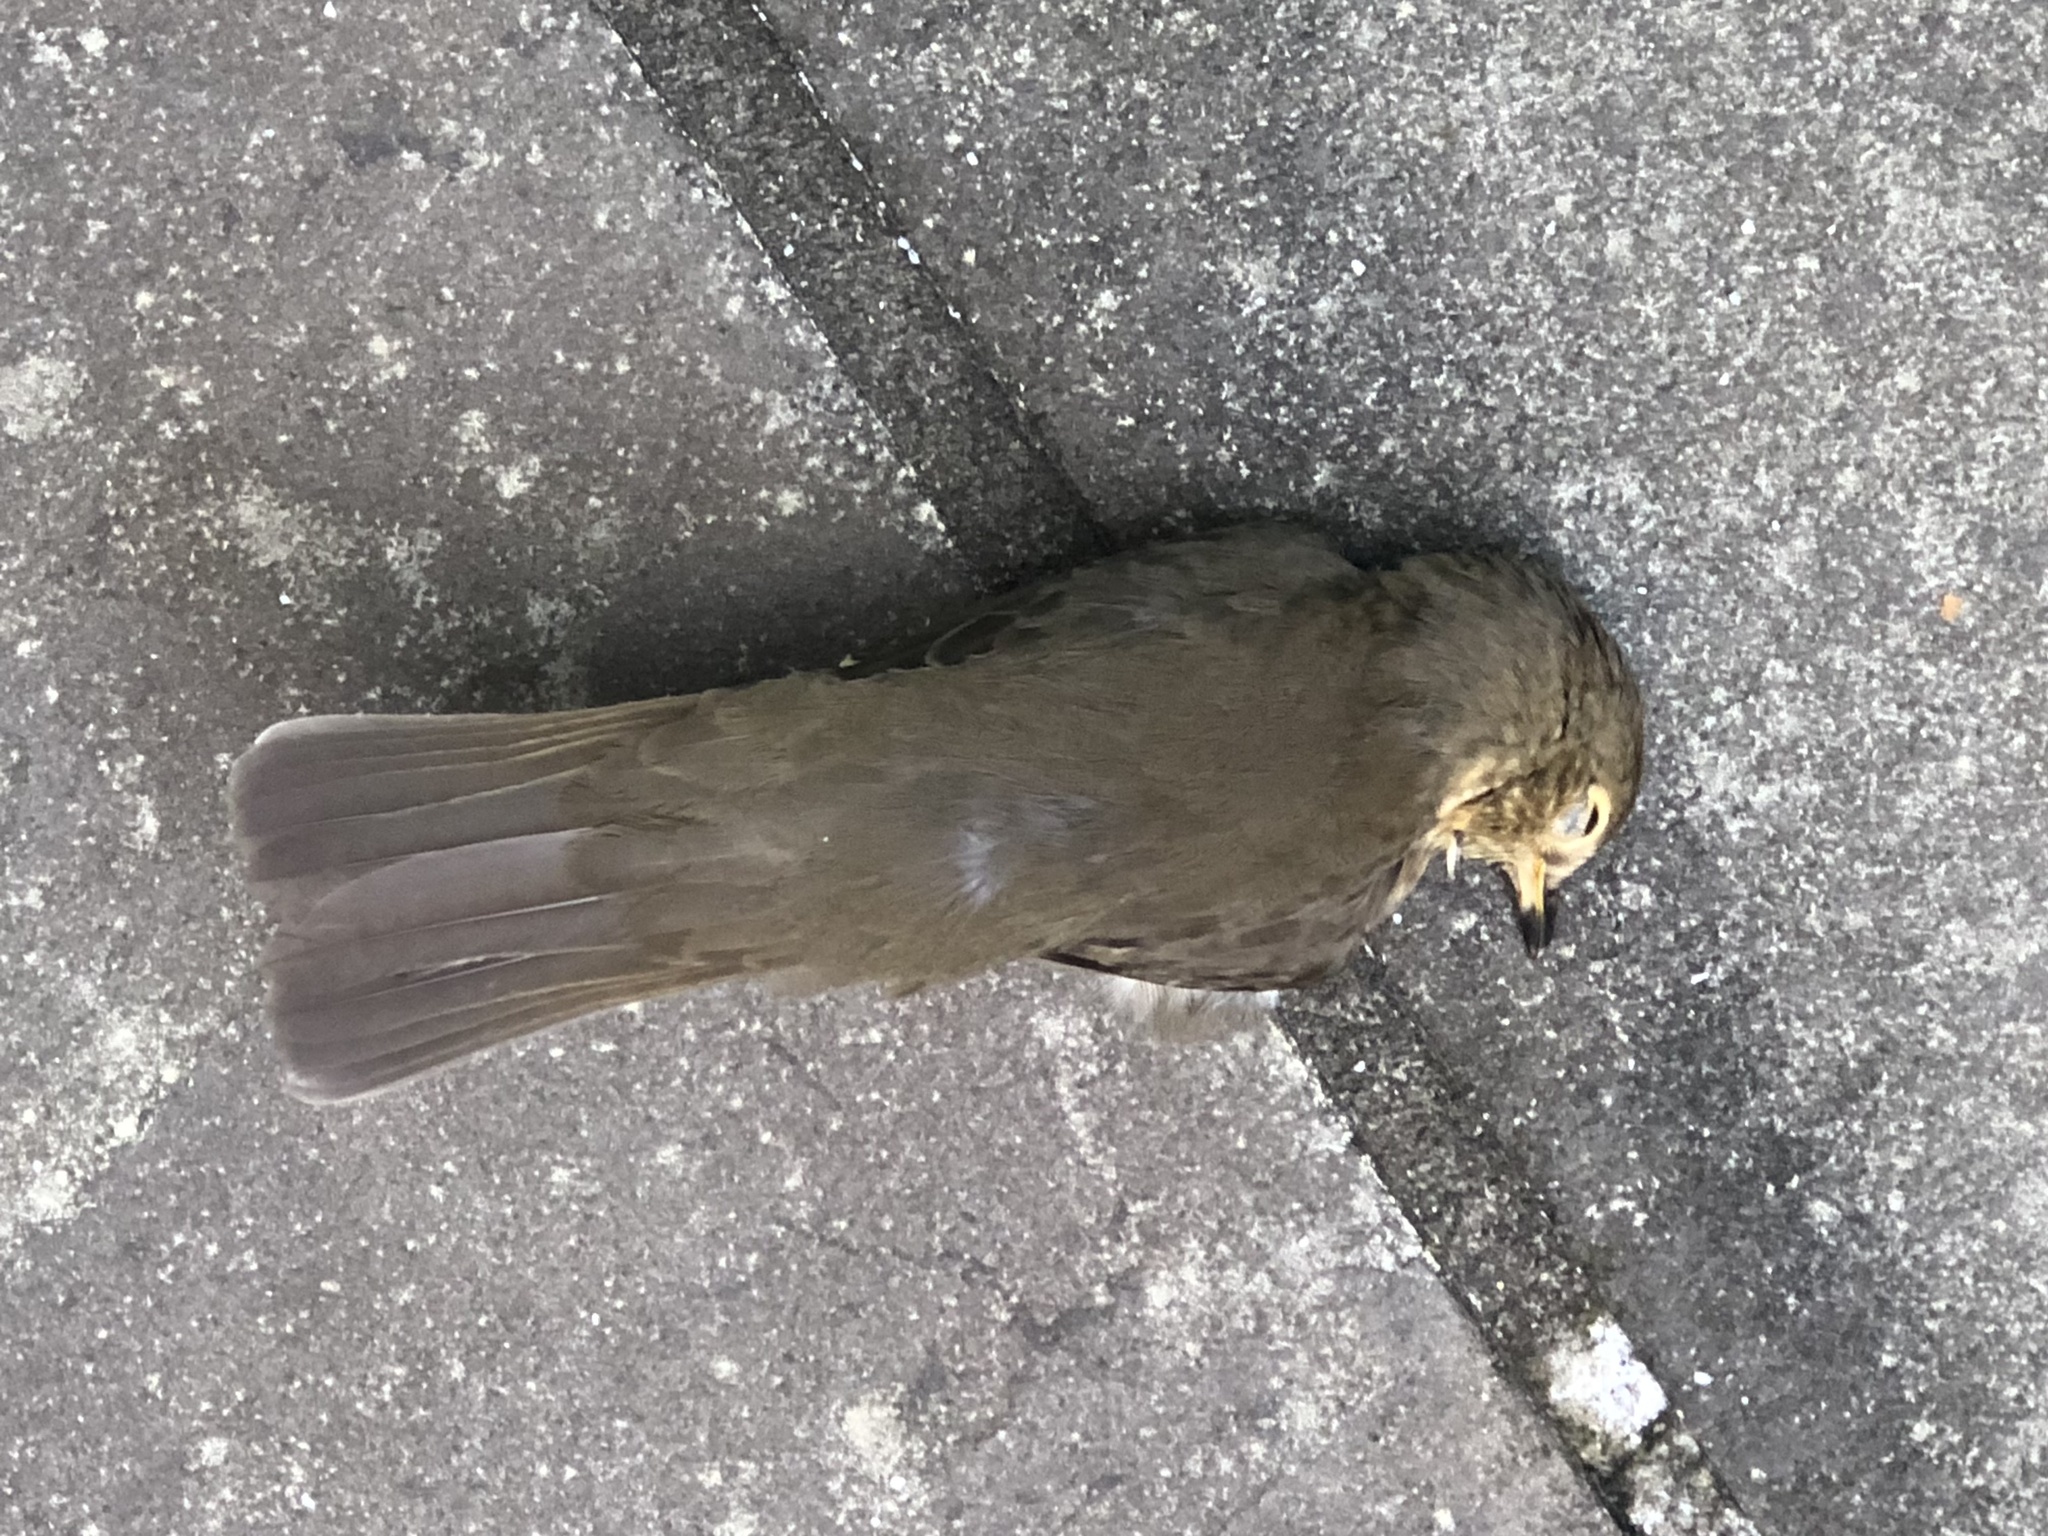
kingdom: Animalia
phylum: Chordata
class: Aves
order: Passeriformes
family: Turdidae
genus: Catharus
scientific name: Catharus ustulatus
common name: Swainson's thrush
